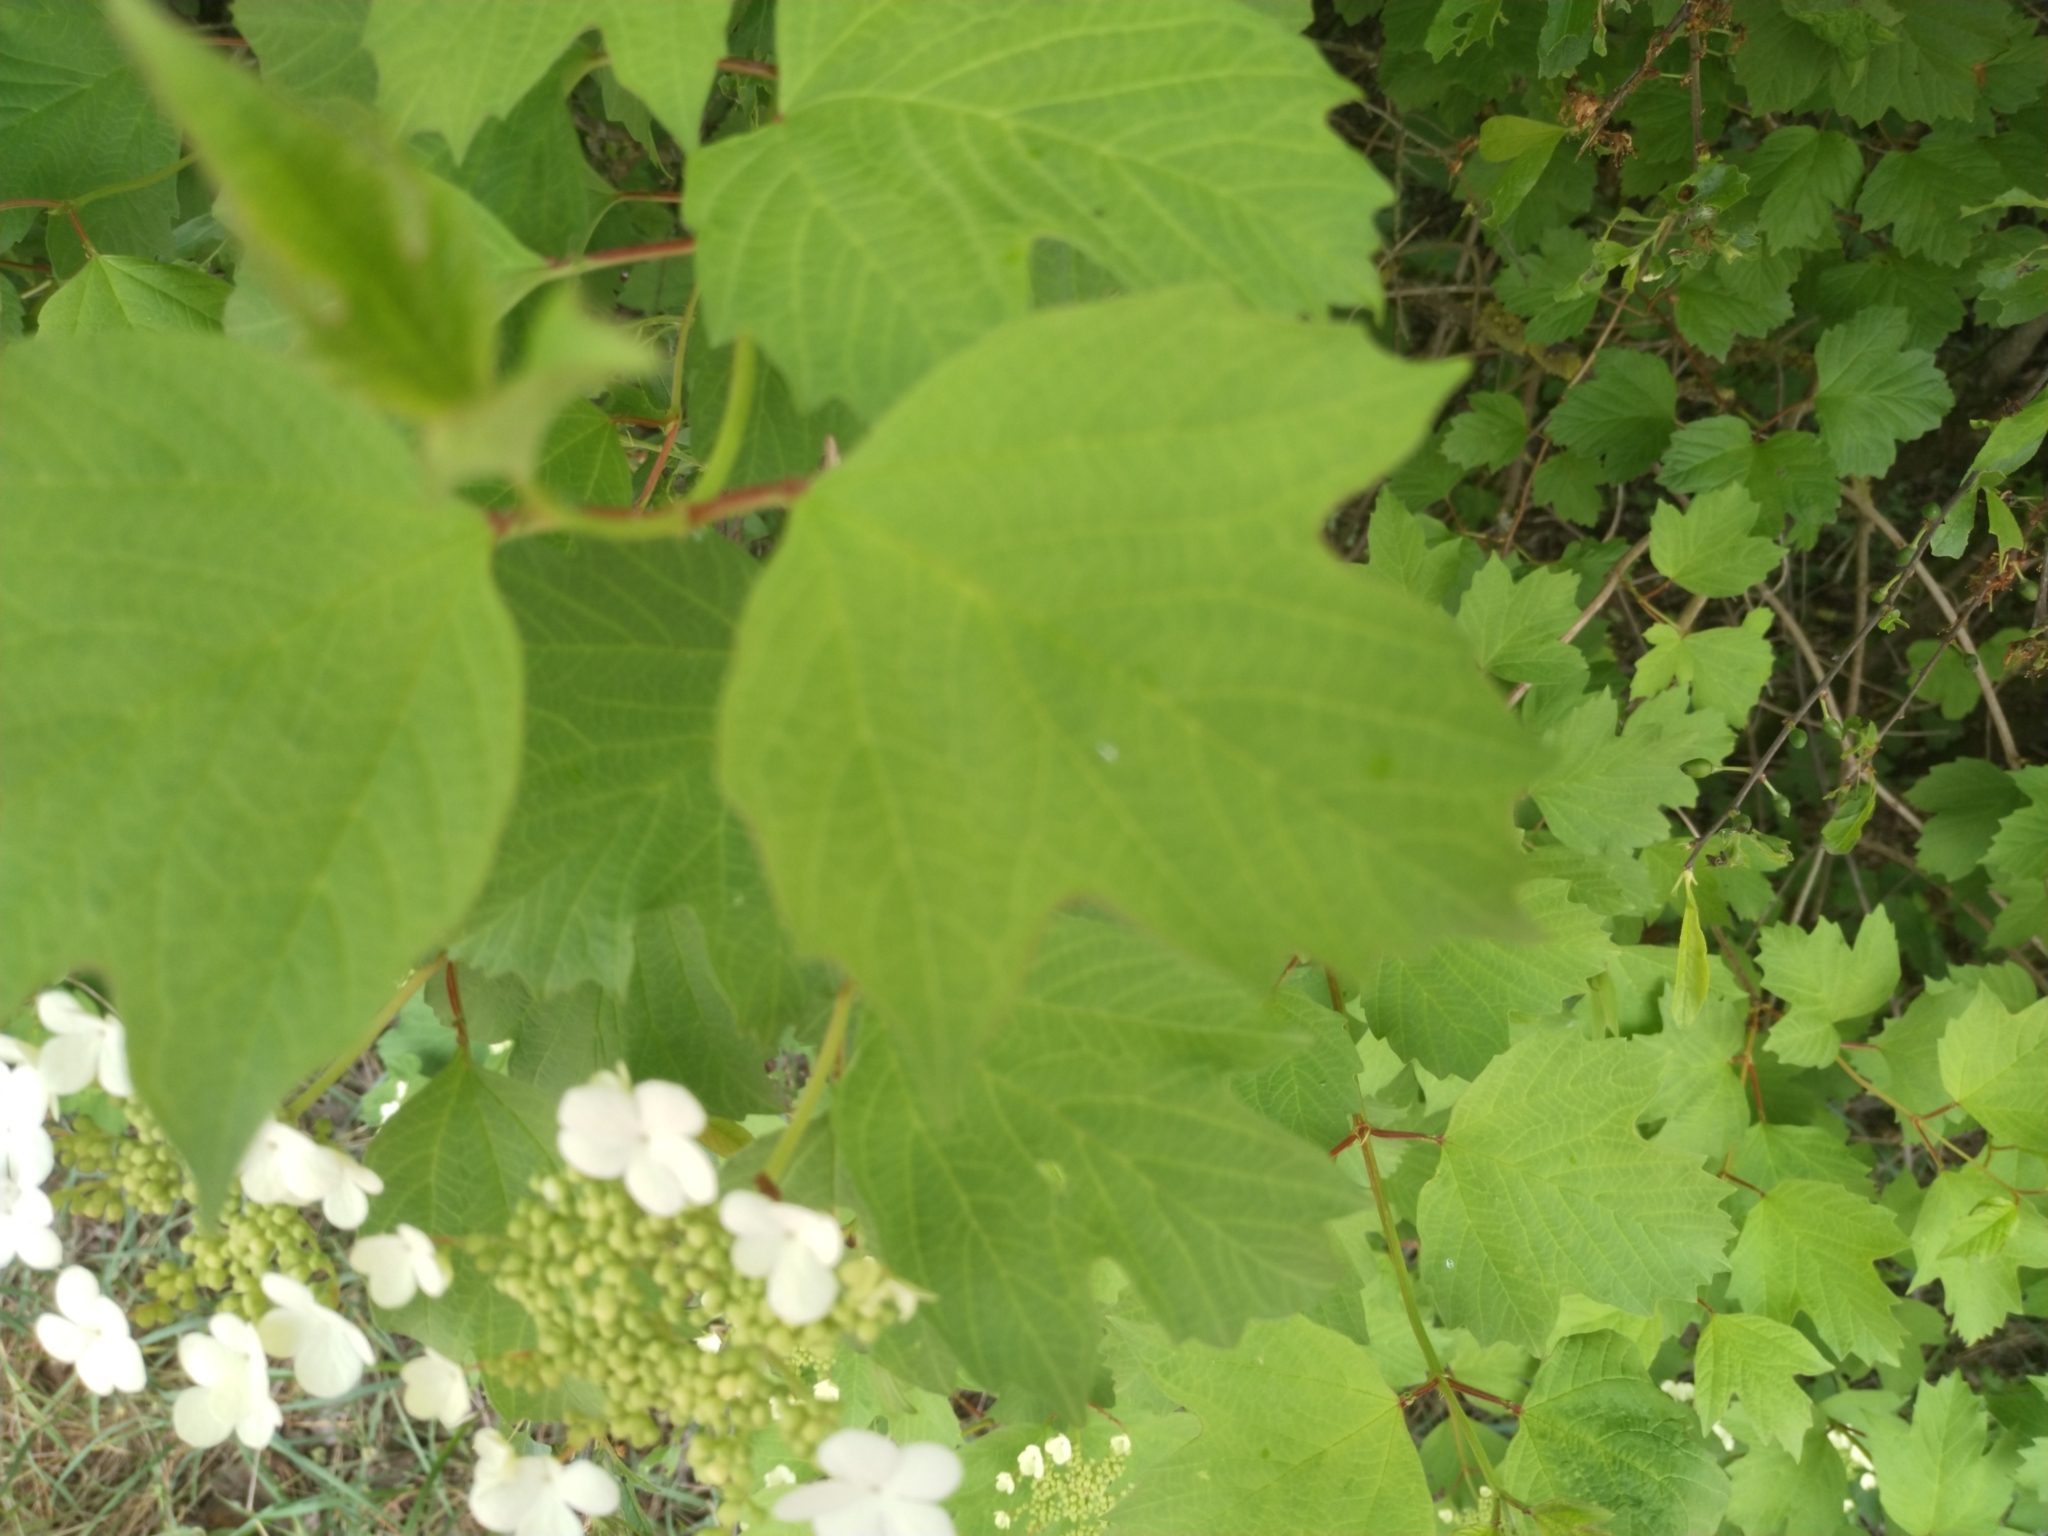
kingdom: Plantae
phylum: Tracheophyta
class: Magnoliopsida
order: Dipsacales
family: Viburnaceae
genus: Viburnum
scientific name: Viburnum opulus
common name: Guelder-rose
